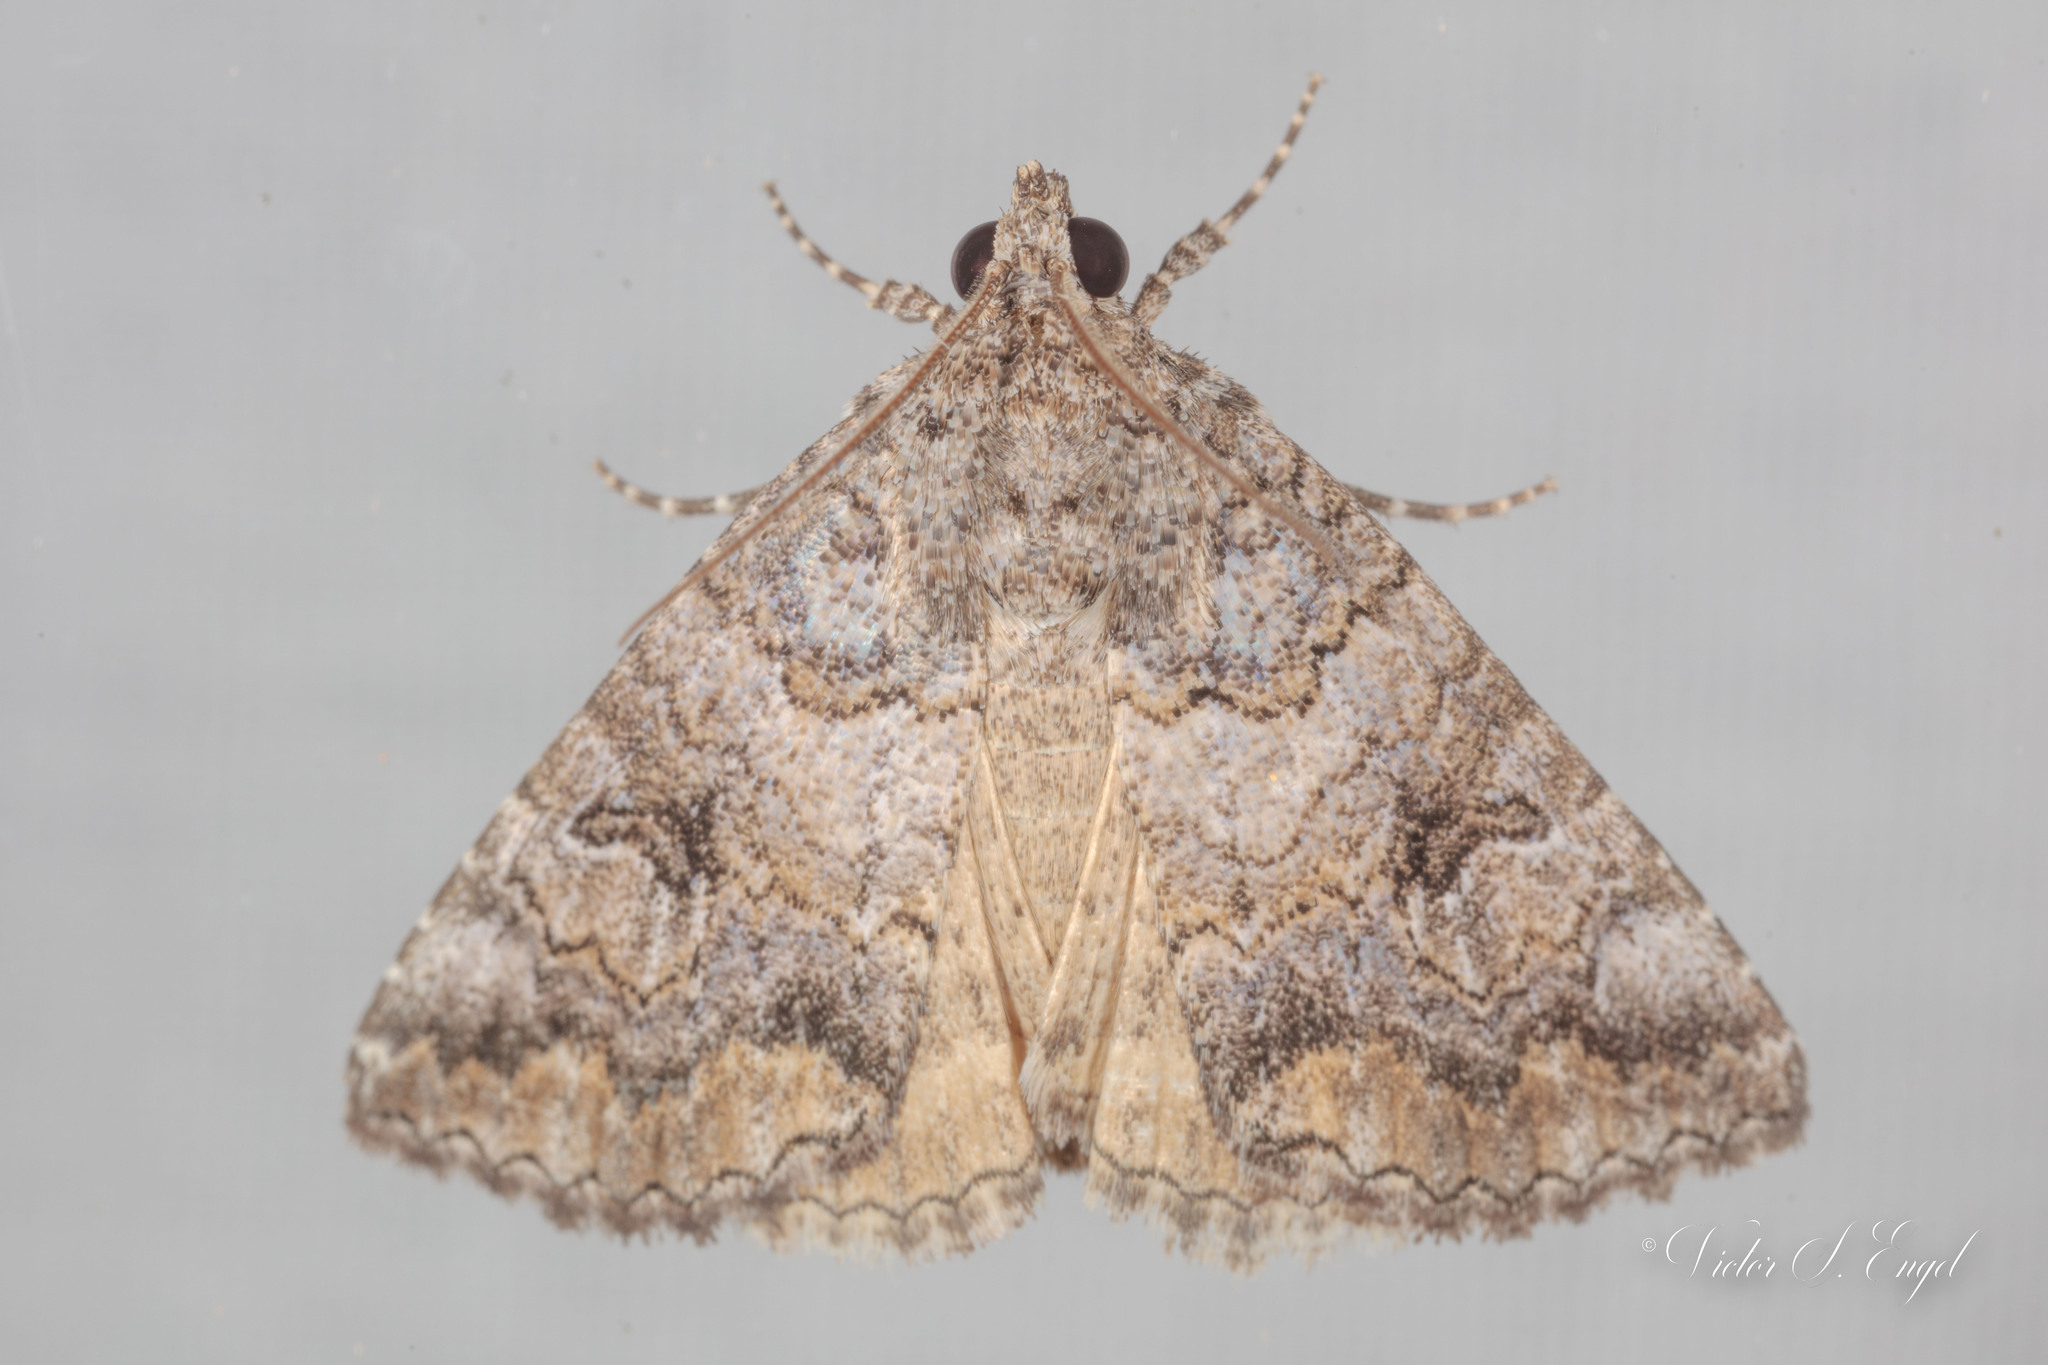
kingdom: Animalia
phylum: Arthropoda
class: Insecta
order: Lepidoptera
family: Erebidae
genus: Eubolina
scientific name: Eubolina impartialis
